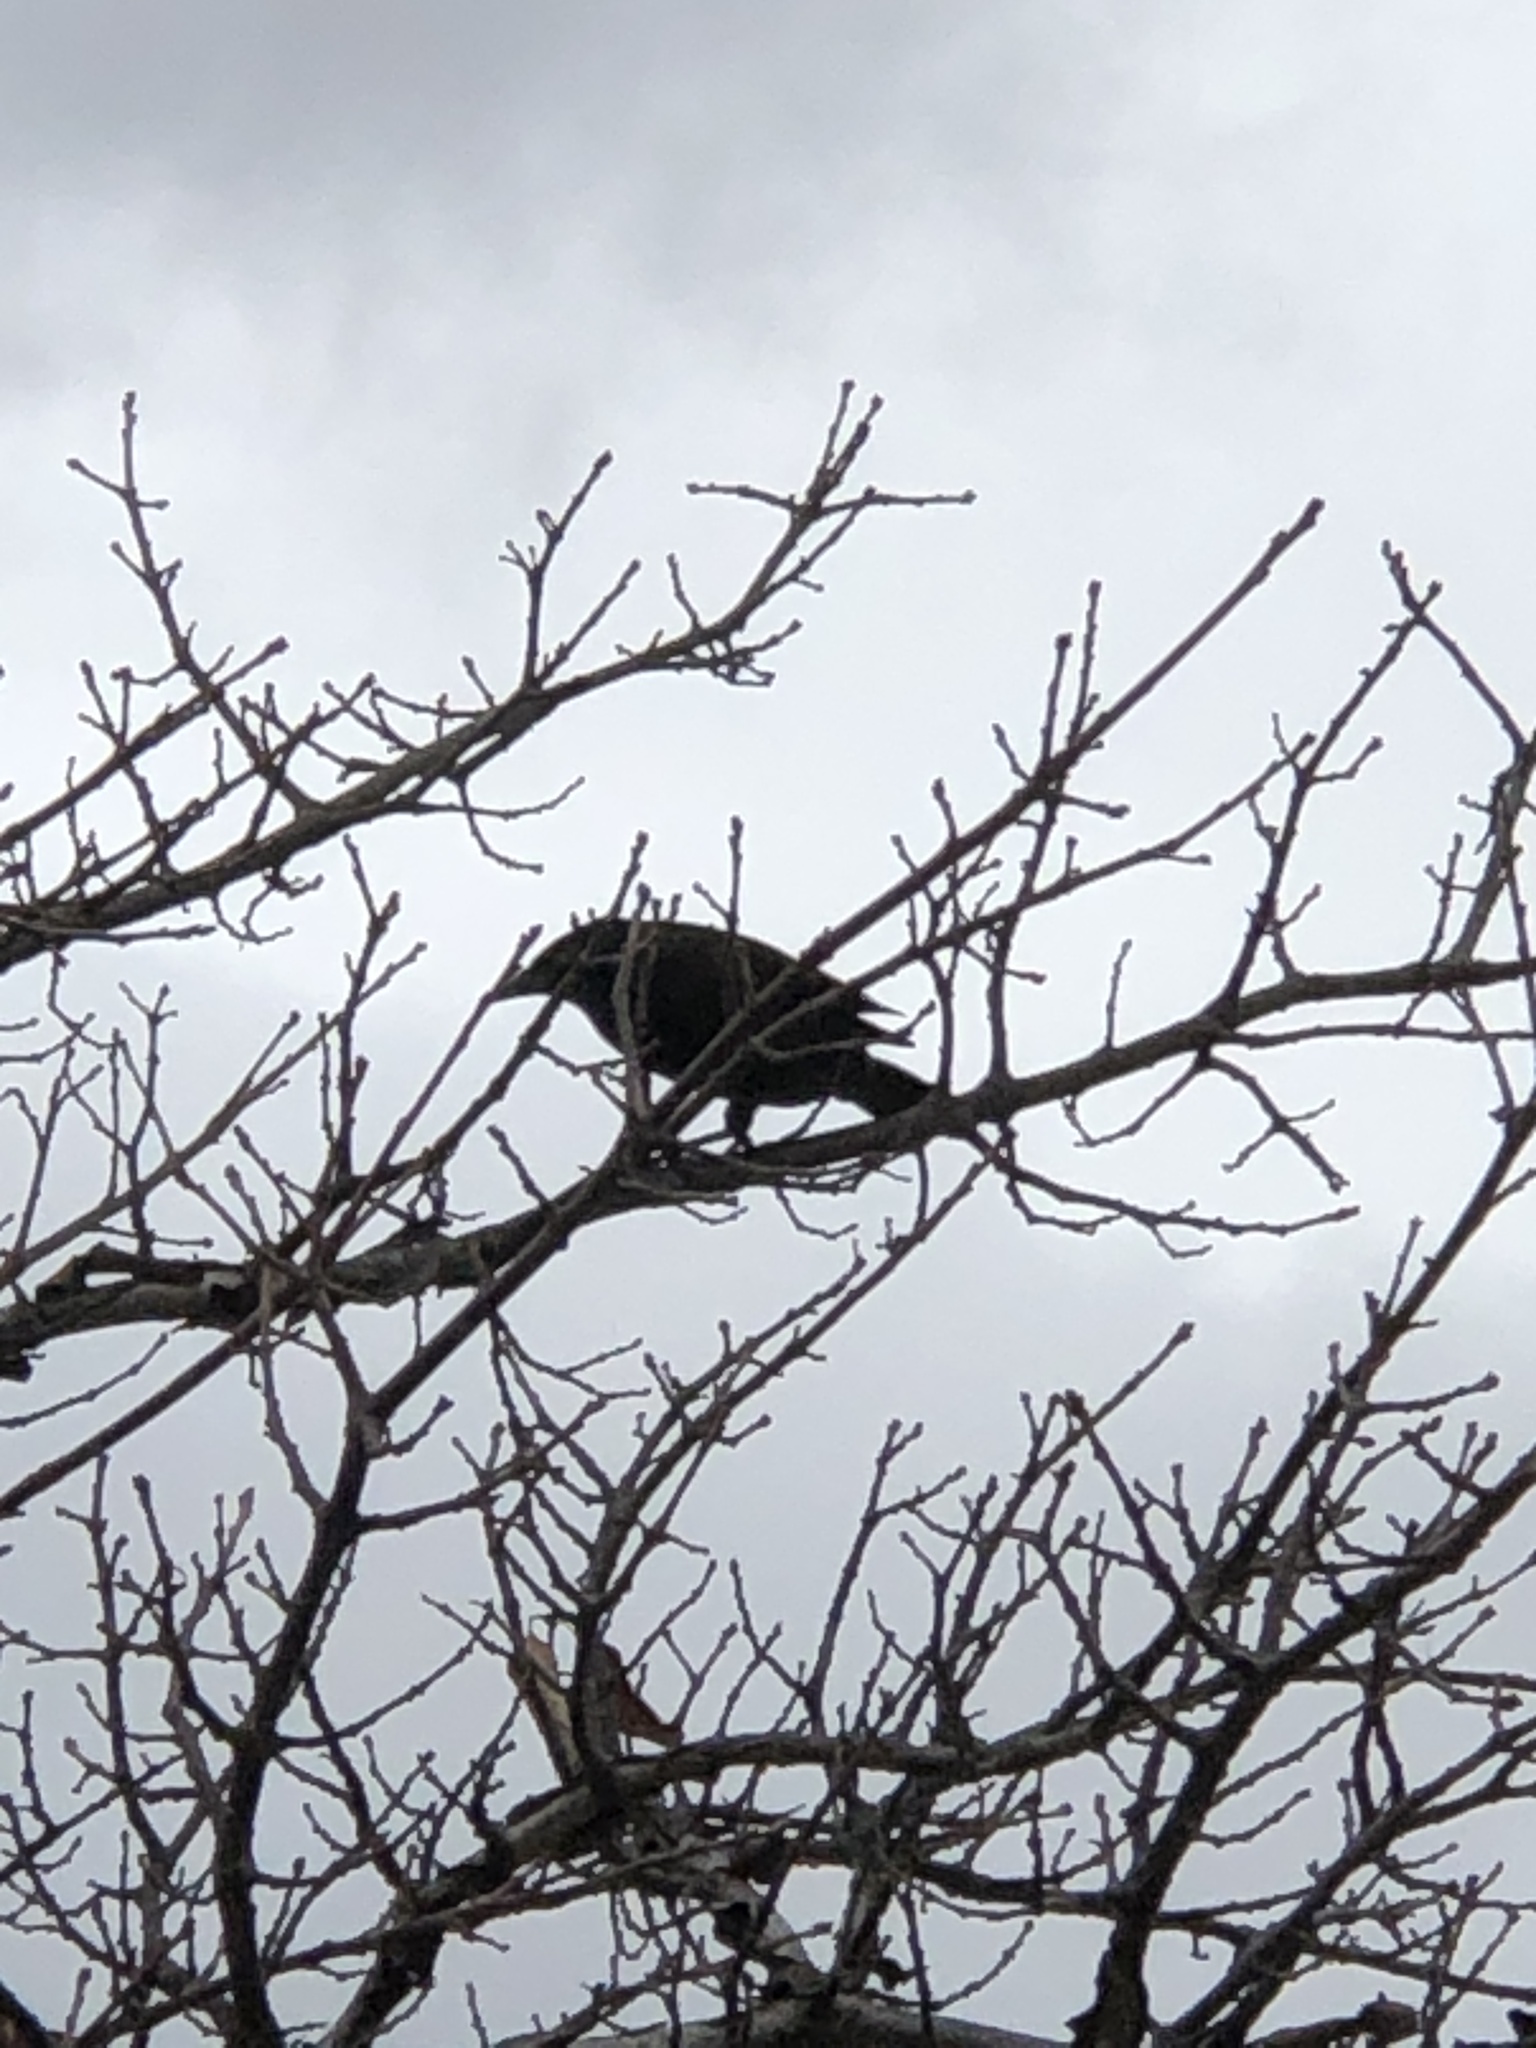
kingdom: Animalia
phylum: Chordata
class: Aves
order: Passeriformes
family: Icteridae
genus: Quiscalus
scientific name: Quiscalus quiscula
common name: Common grackle
